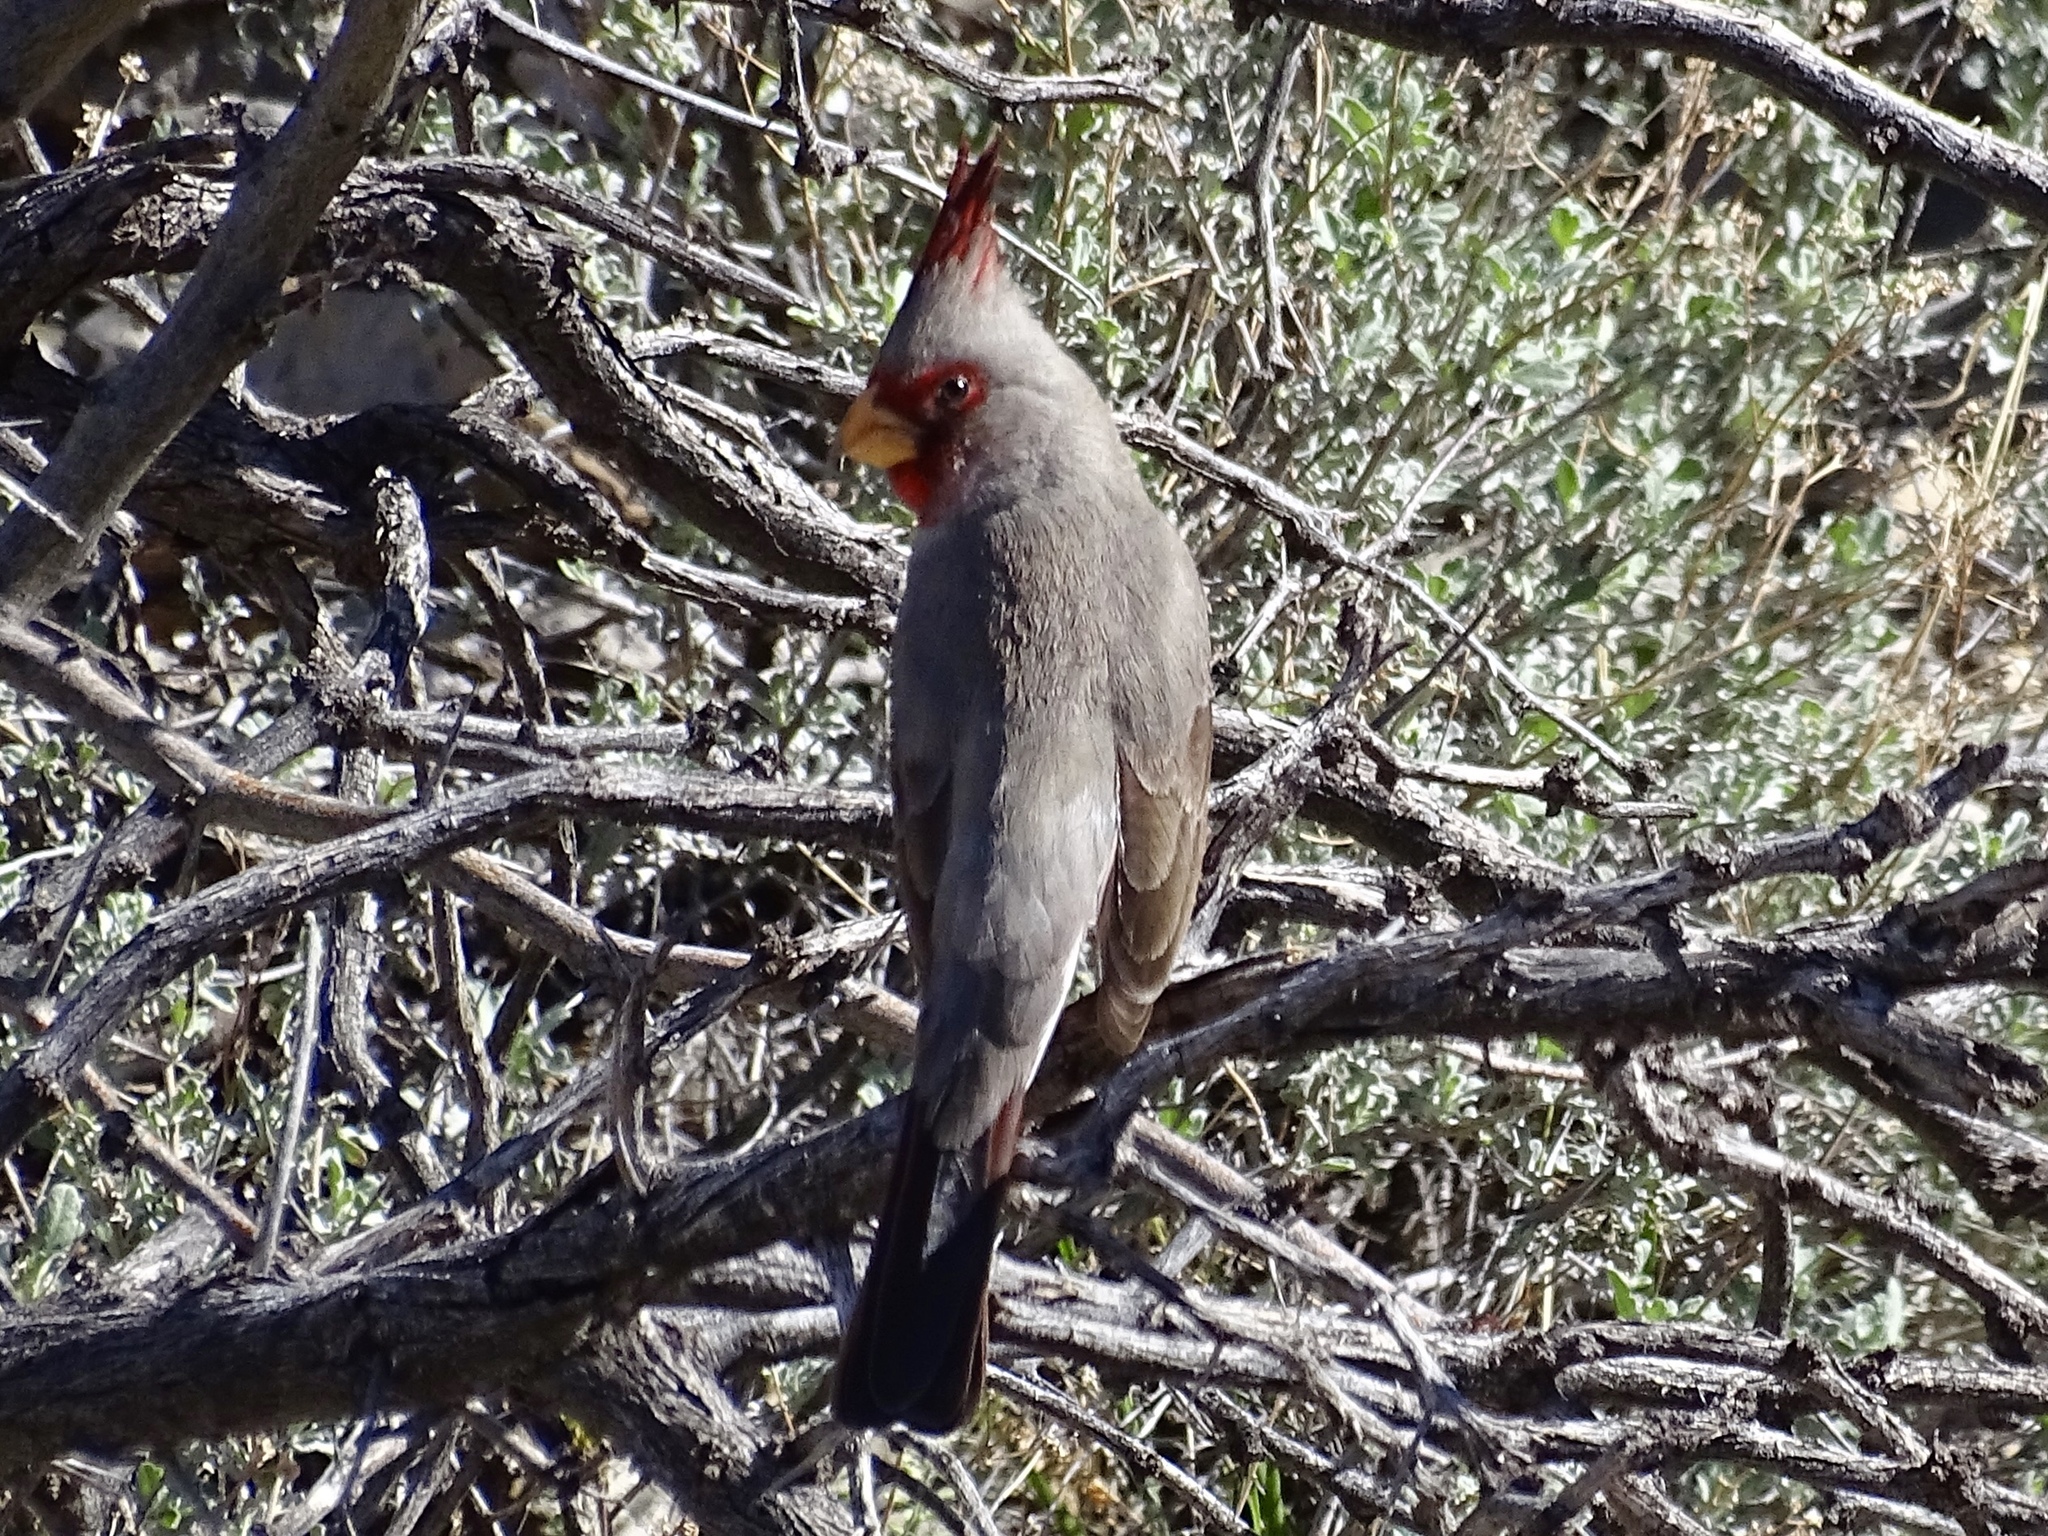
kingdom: Animalia
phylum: Chordata
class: Aves
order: Passeriformes
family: Cardinalidae
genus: Cardinalis
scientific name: Cardinalis sinuatus
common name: Pyrrhuloxia
